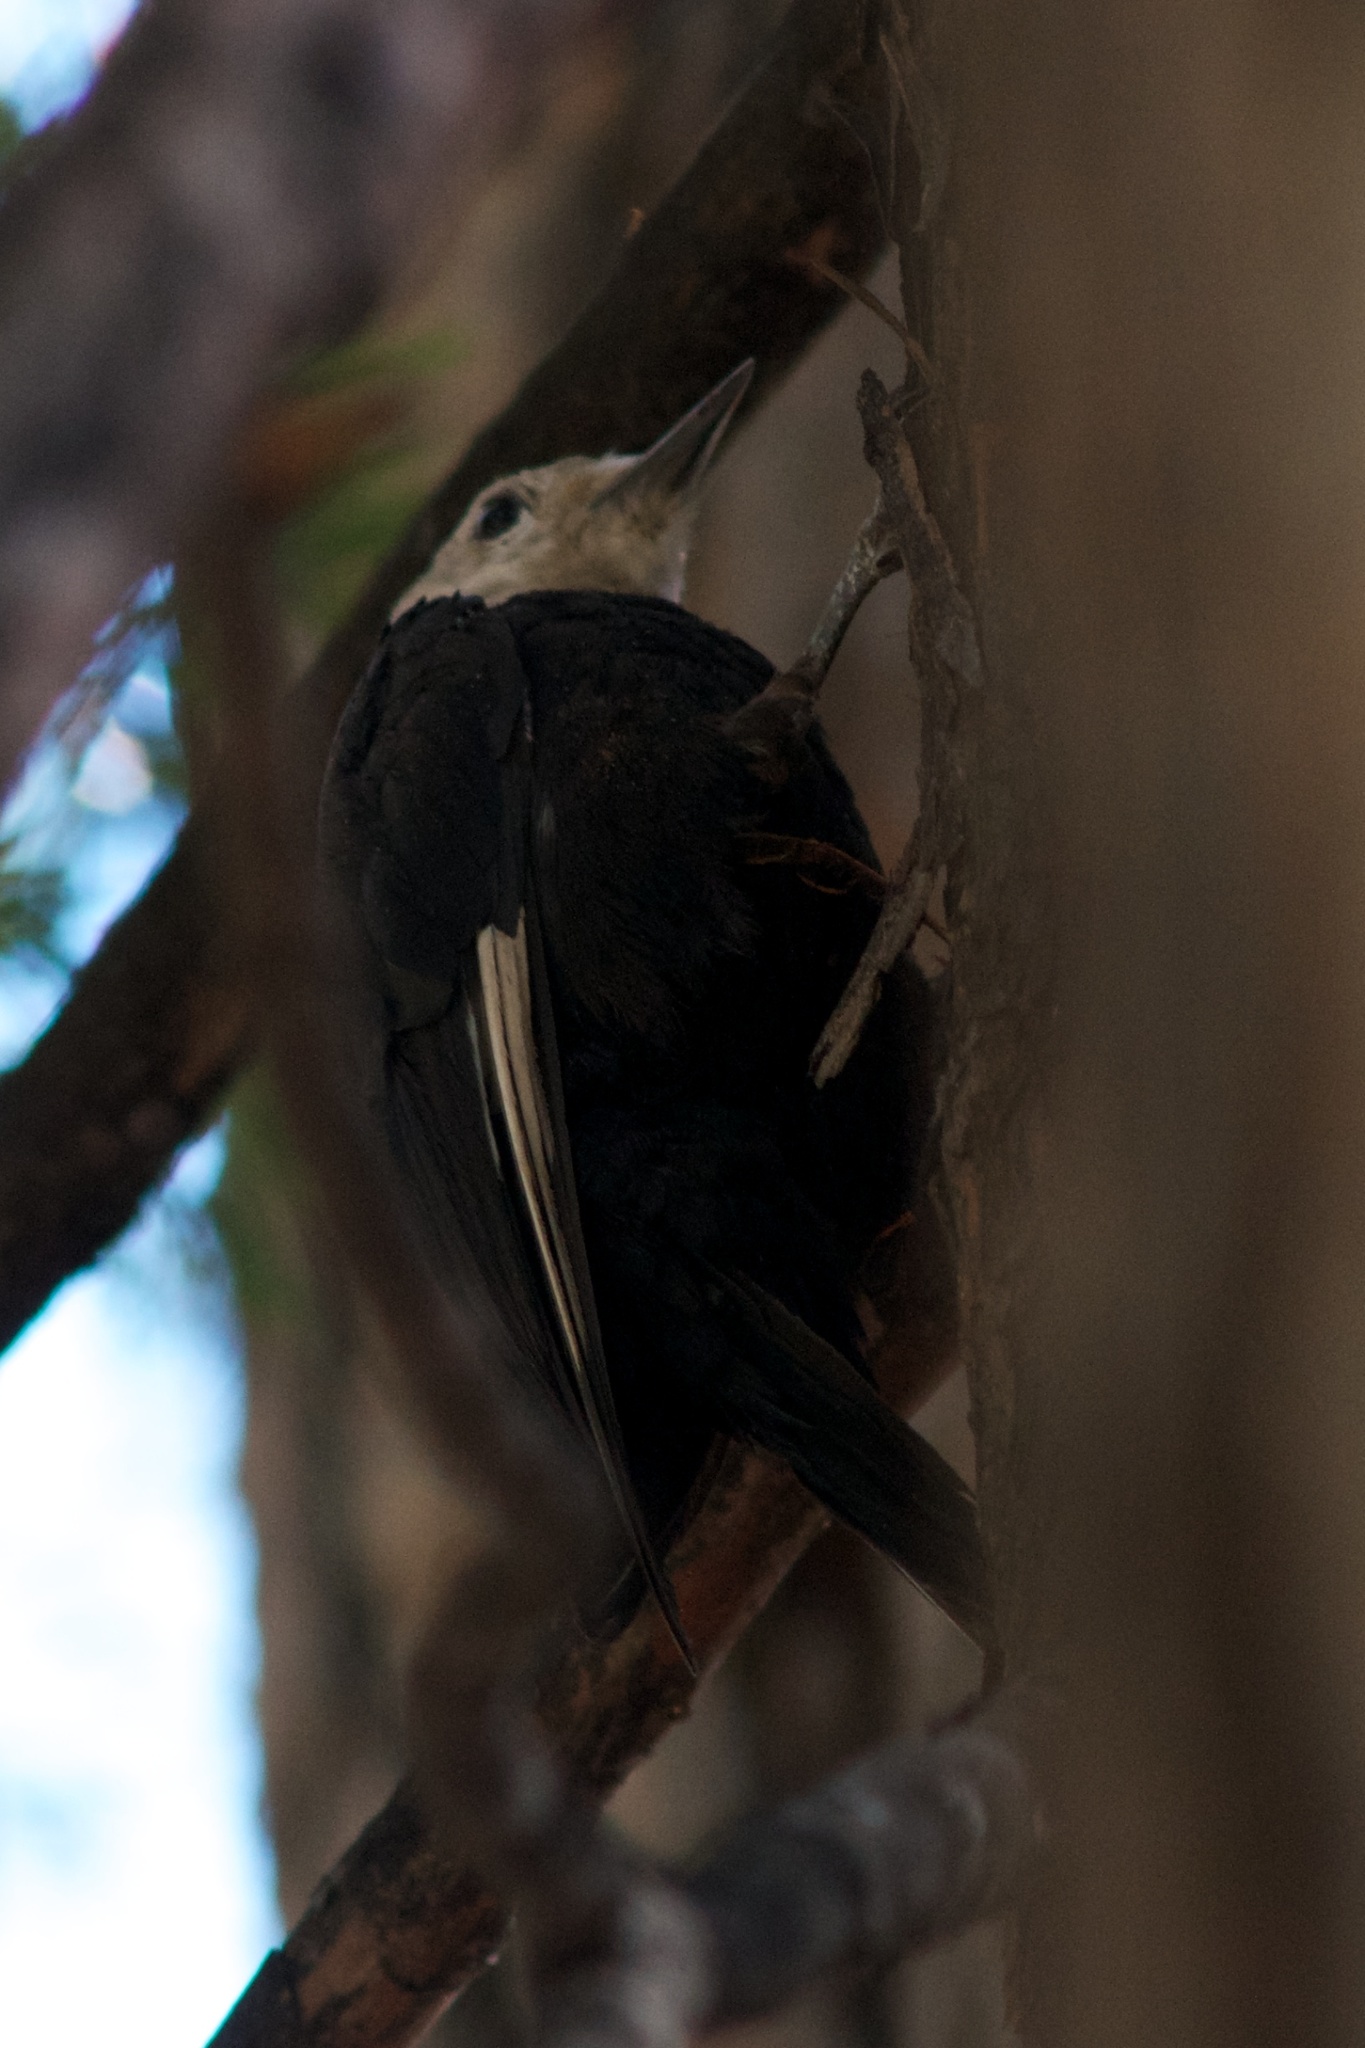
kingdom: Animalia
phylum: Chordata
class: Aves
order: Piciformes
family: Picidae
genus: Leuconotopicus
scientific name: Leuconotopicus albolarvatus
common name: White-headed woodpecker
